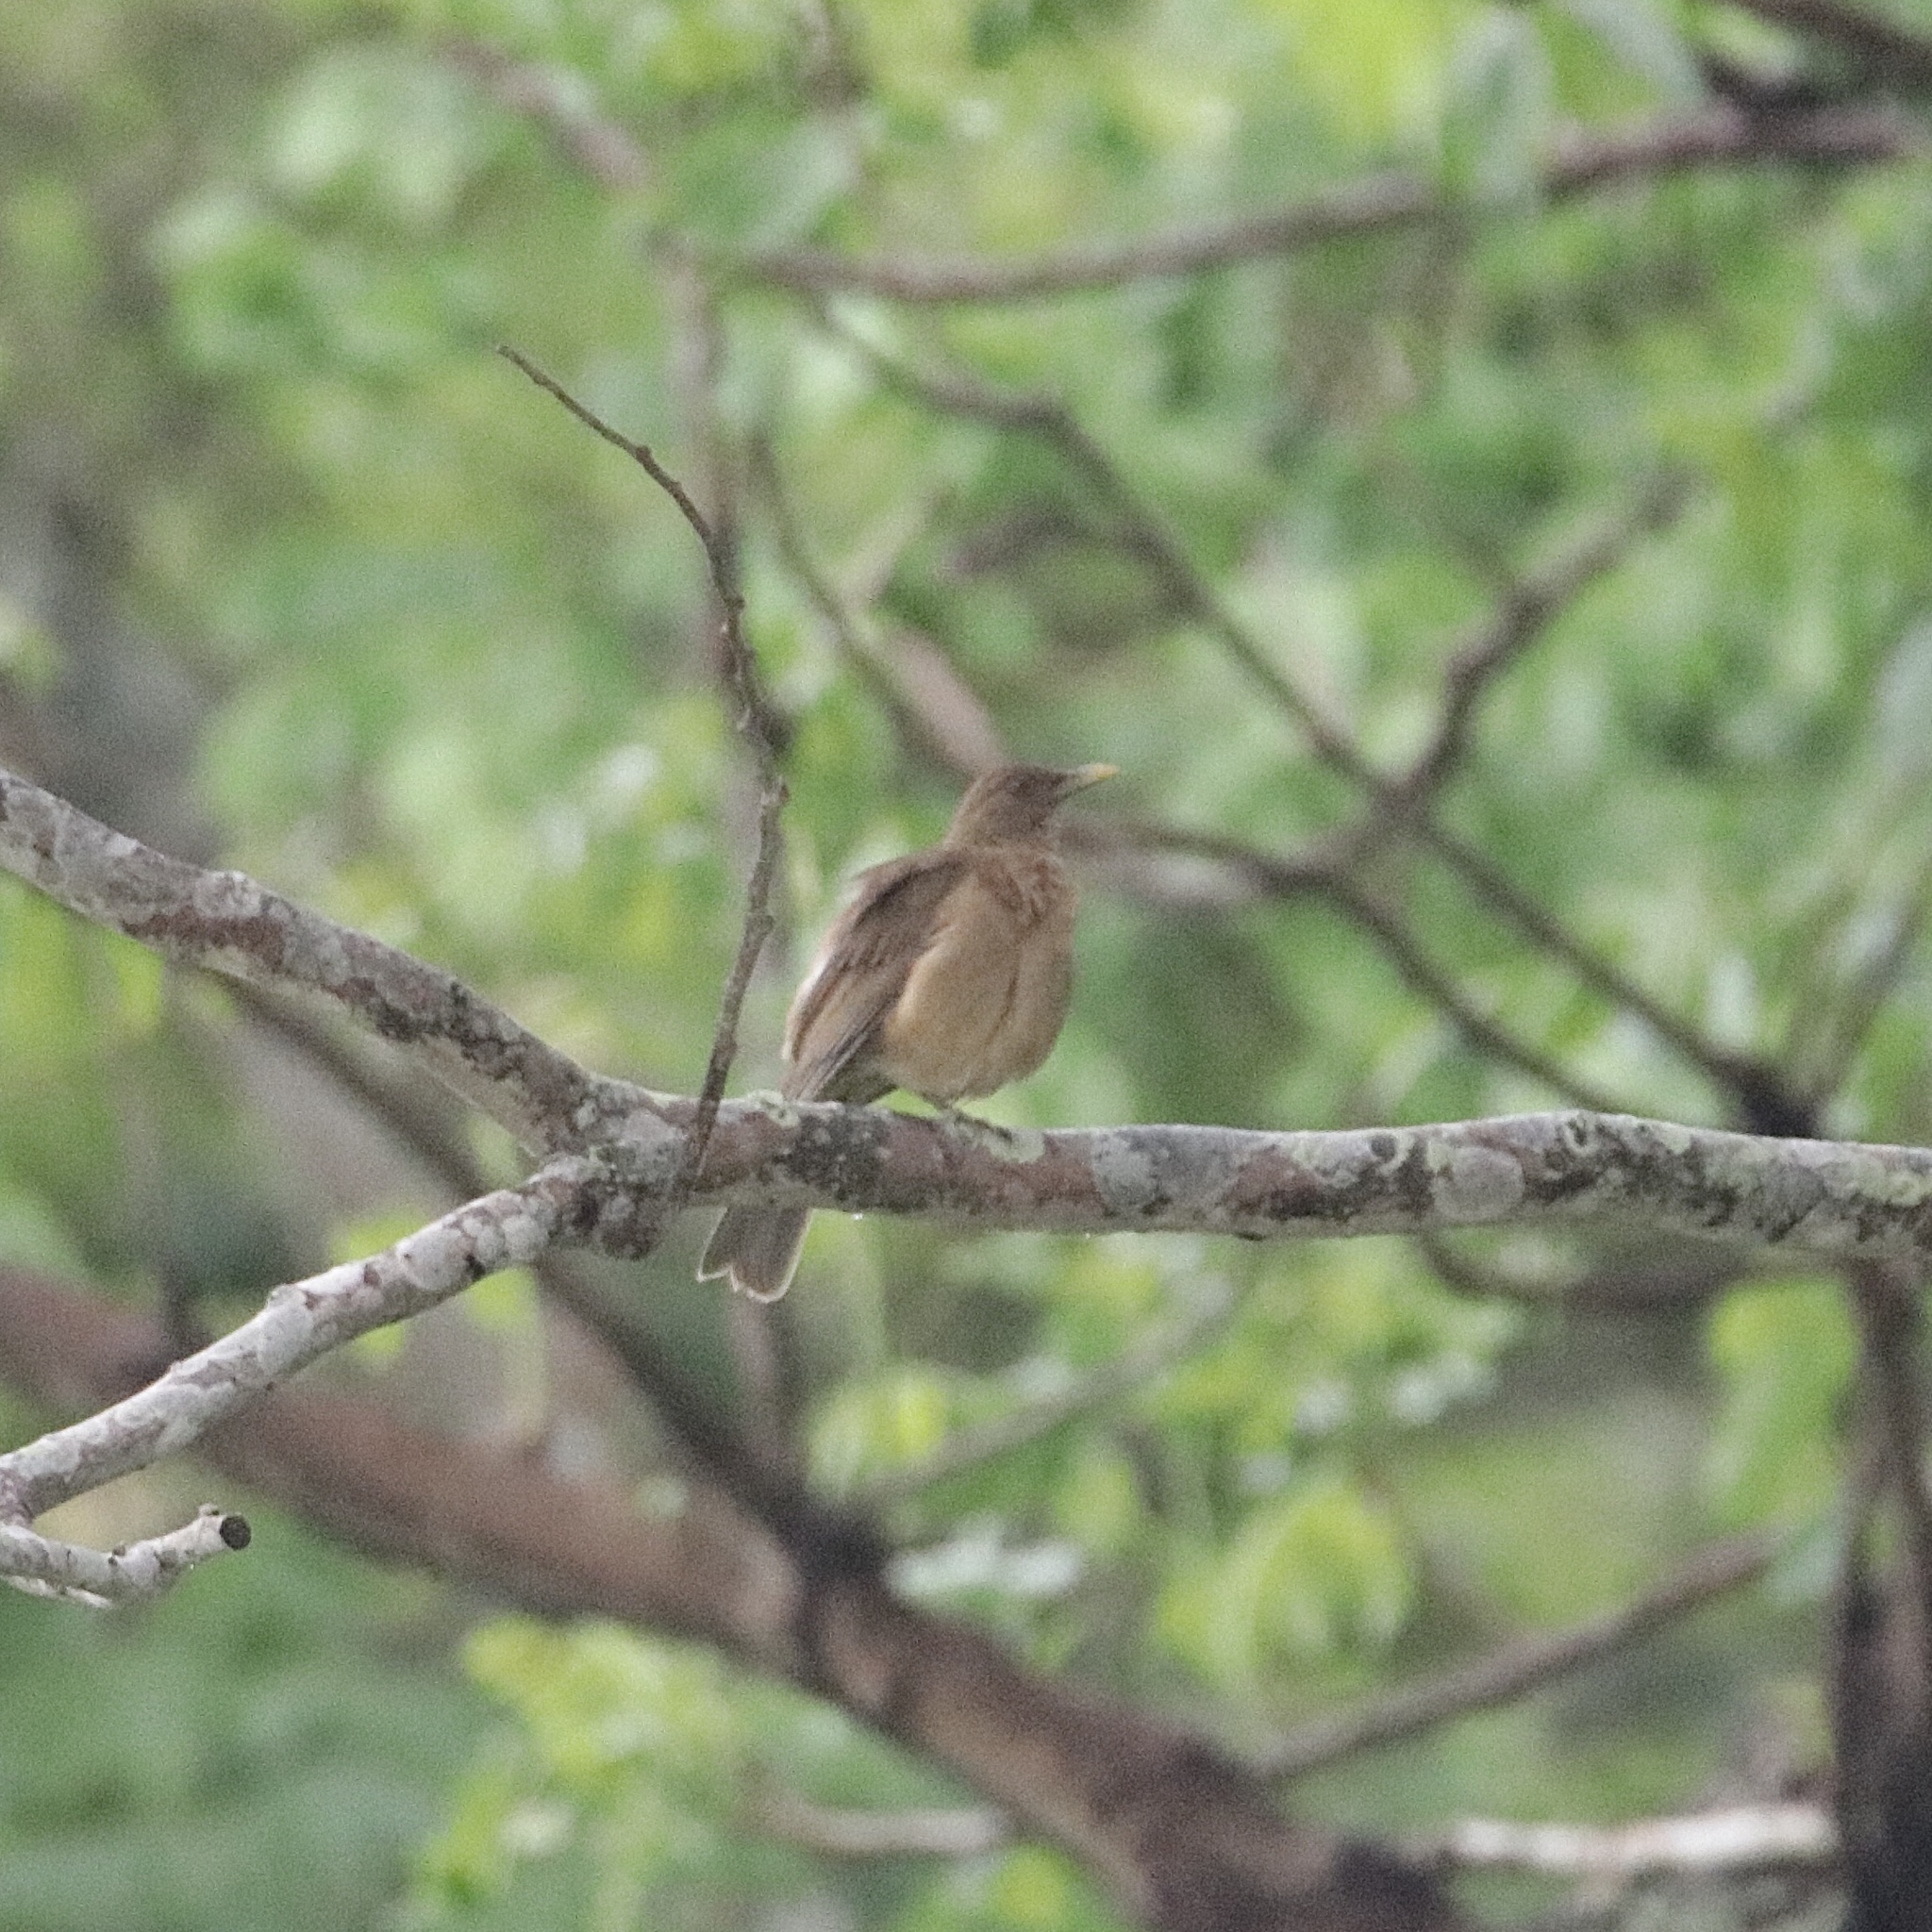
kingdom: Animalia
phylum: Chordata
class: Aves
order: Passeriformes
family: Turdidae
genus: Turdus
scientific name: Turdus grayi
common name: Clay-colored thrush
